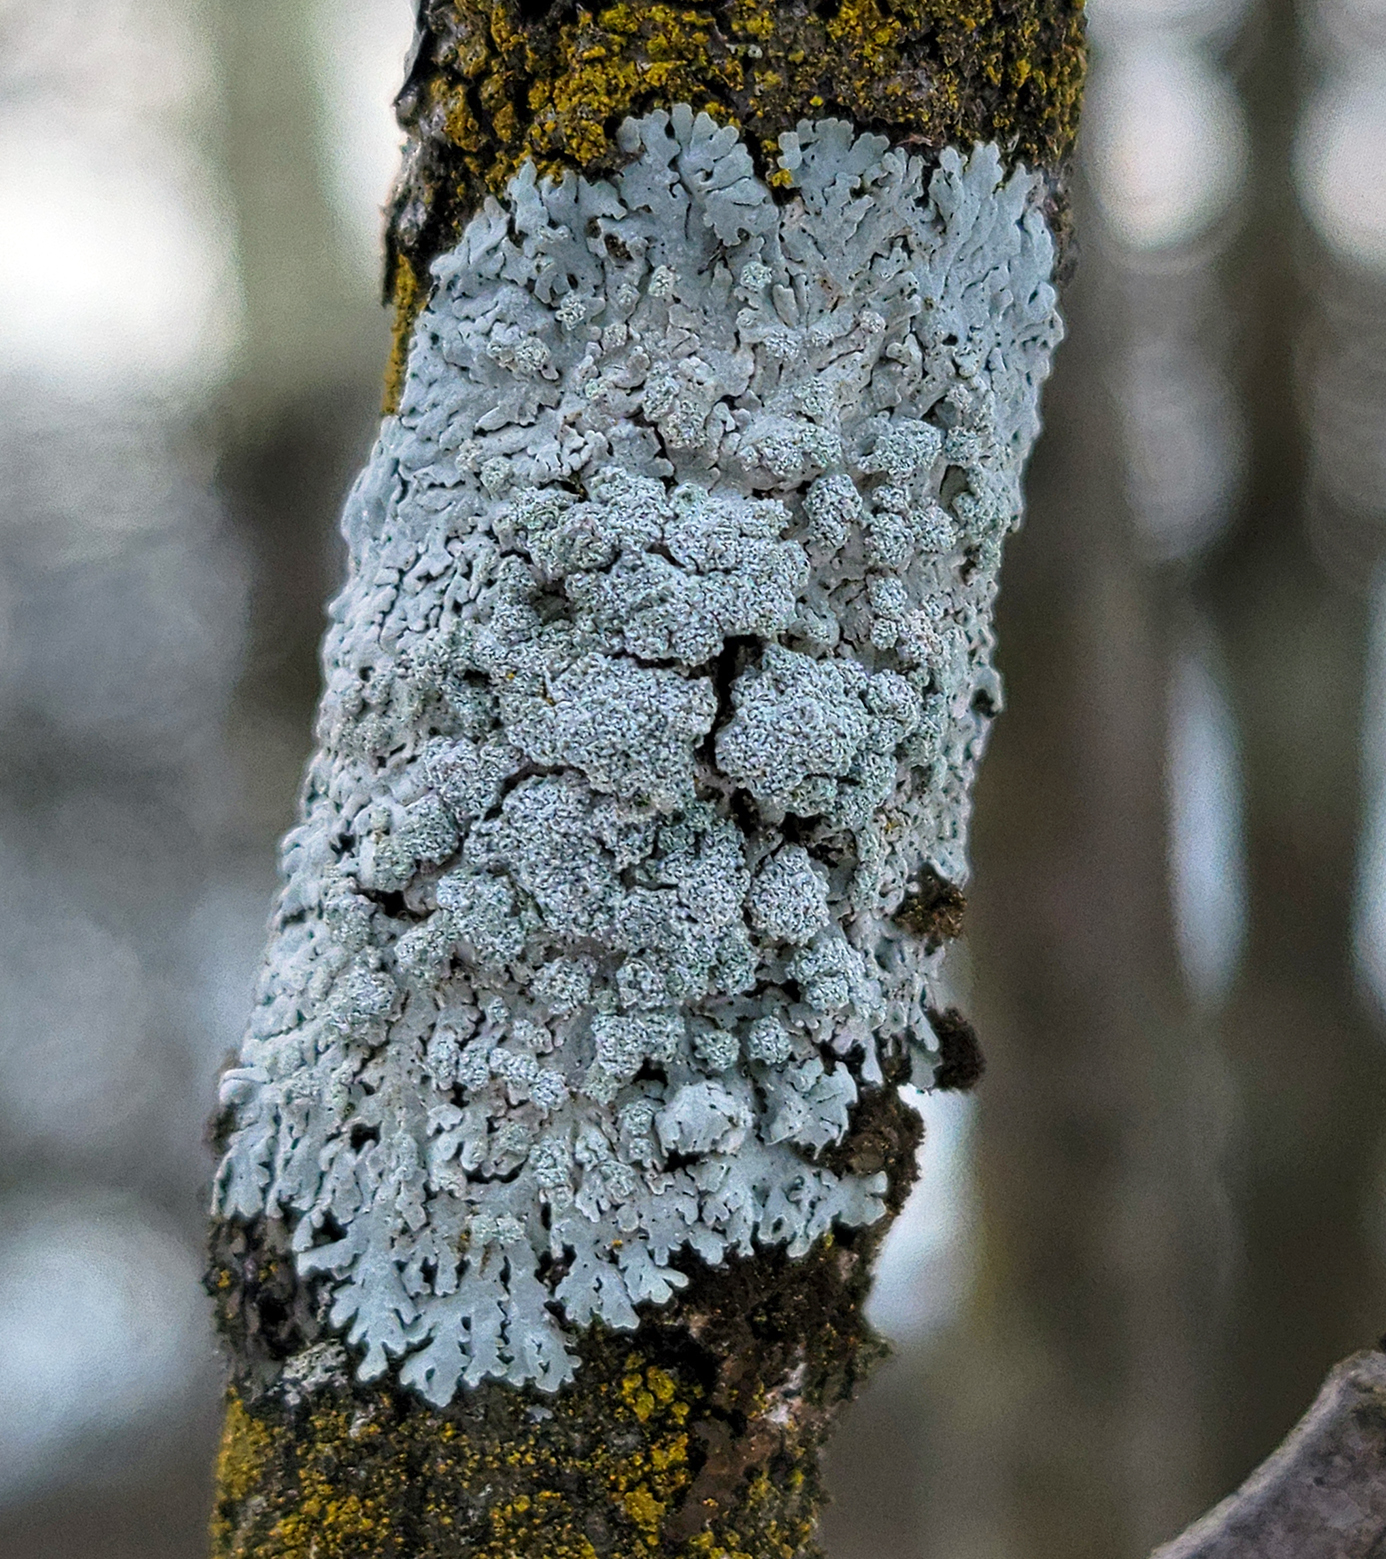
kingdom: Fungi
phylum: Ascomycota
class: Lecanoromycetes
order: Caliciales
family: Physciaceae
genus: Physcia
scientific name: Physcia americana
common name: American rosette lichen
